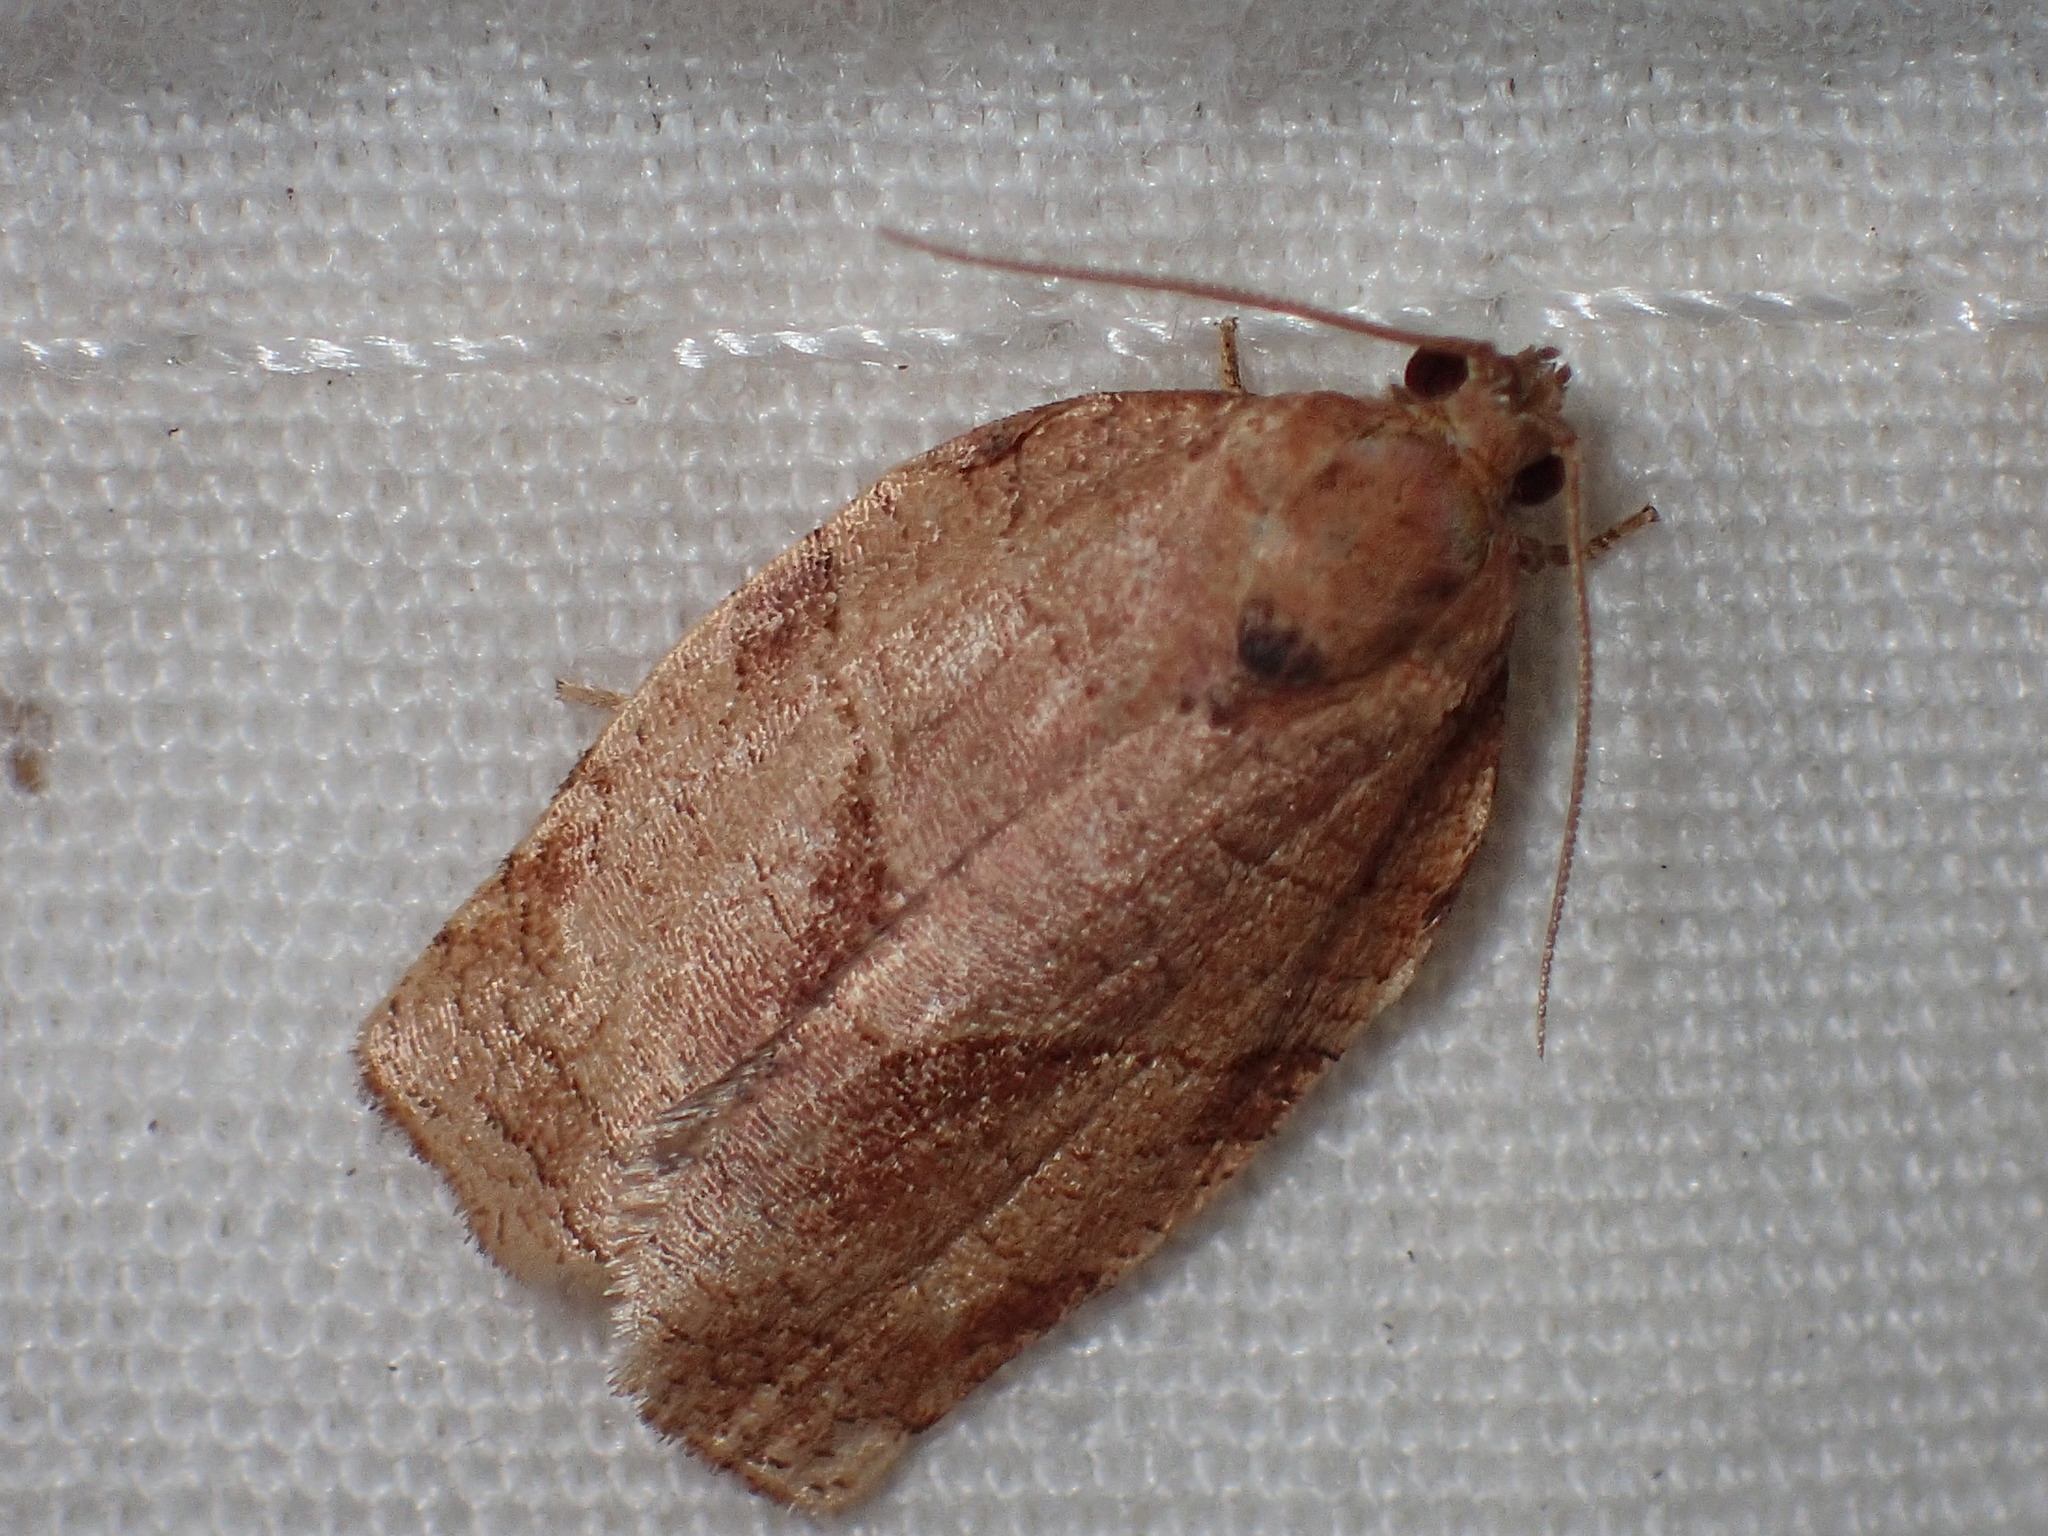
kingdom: Animalia
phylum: Arthropoda
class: Insecta
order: Lepidoptera
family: Tortricidae
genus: Choristoneura
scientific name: Choristoneura rosaceana
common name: Oblique-banded leafroller moth
